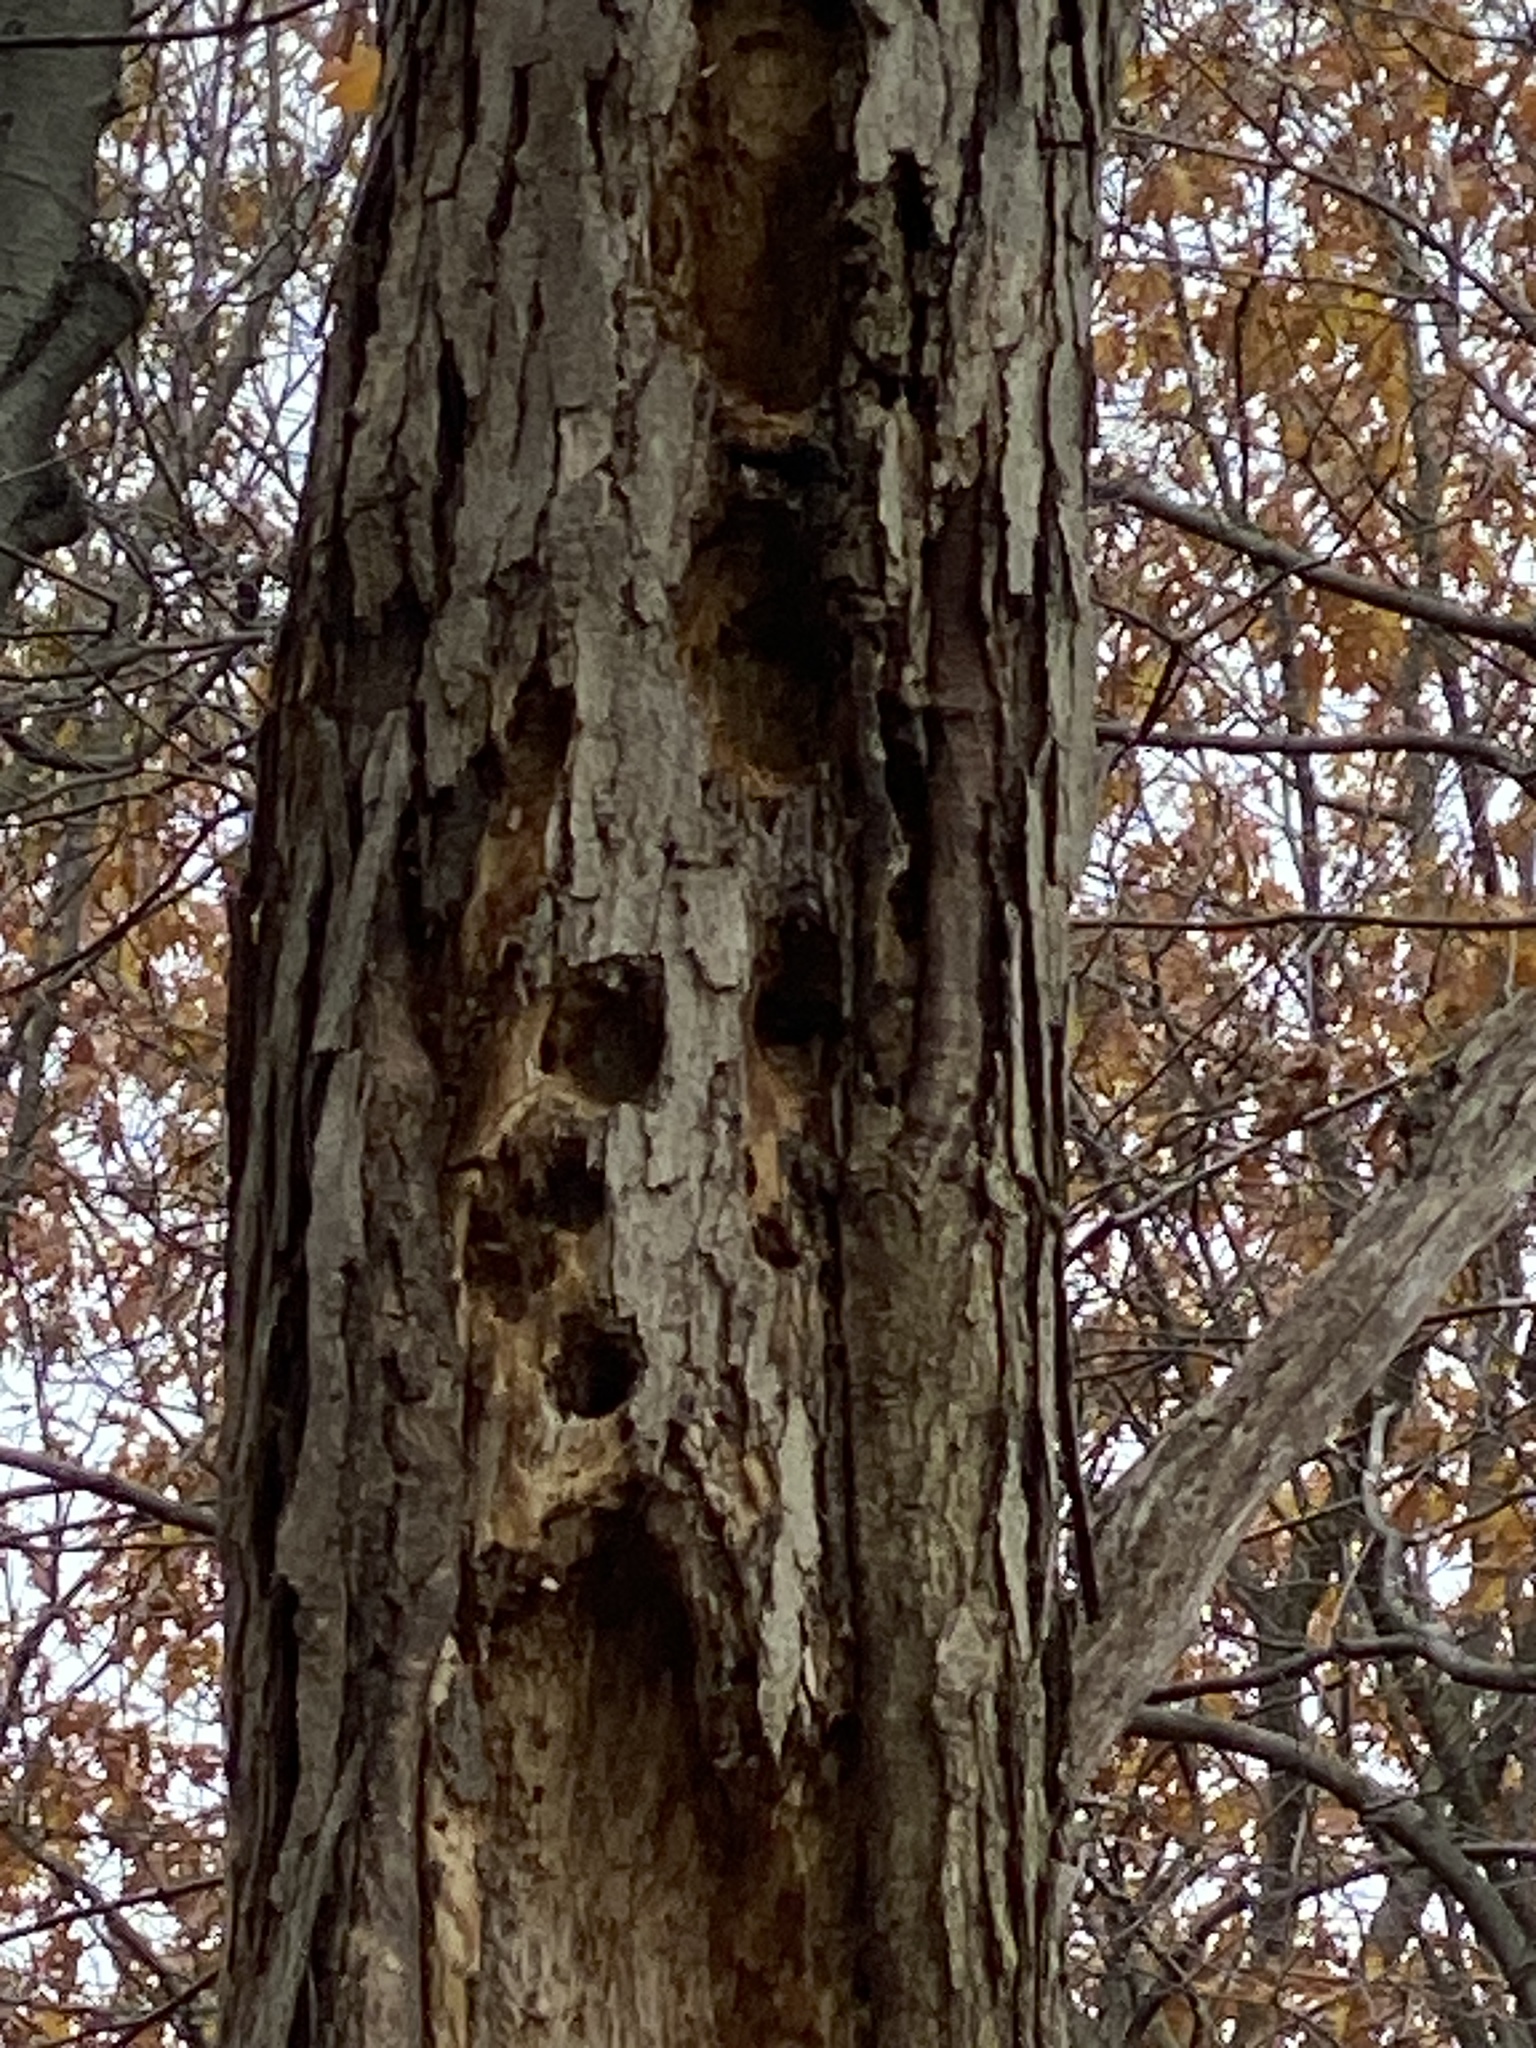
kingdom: Animalia
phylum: Chordata
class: Aves
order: Piciformes
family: Picidae
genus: Dryocopus
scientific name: Dryocopus pileatus
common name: Pileated woodpecker
